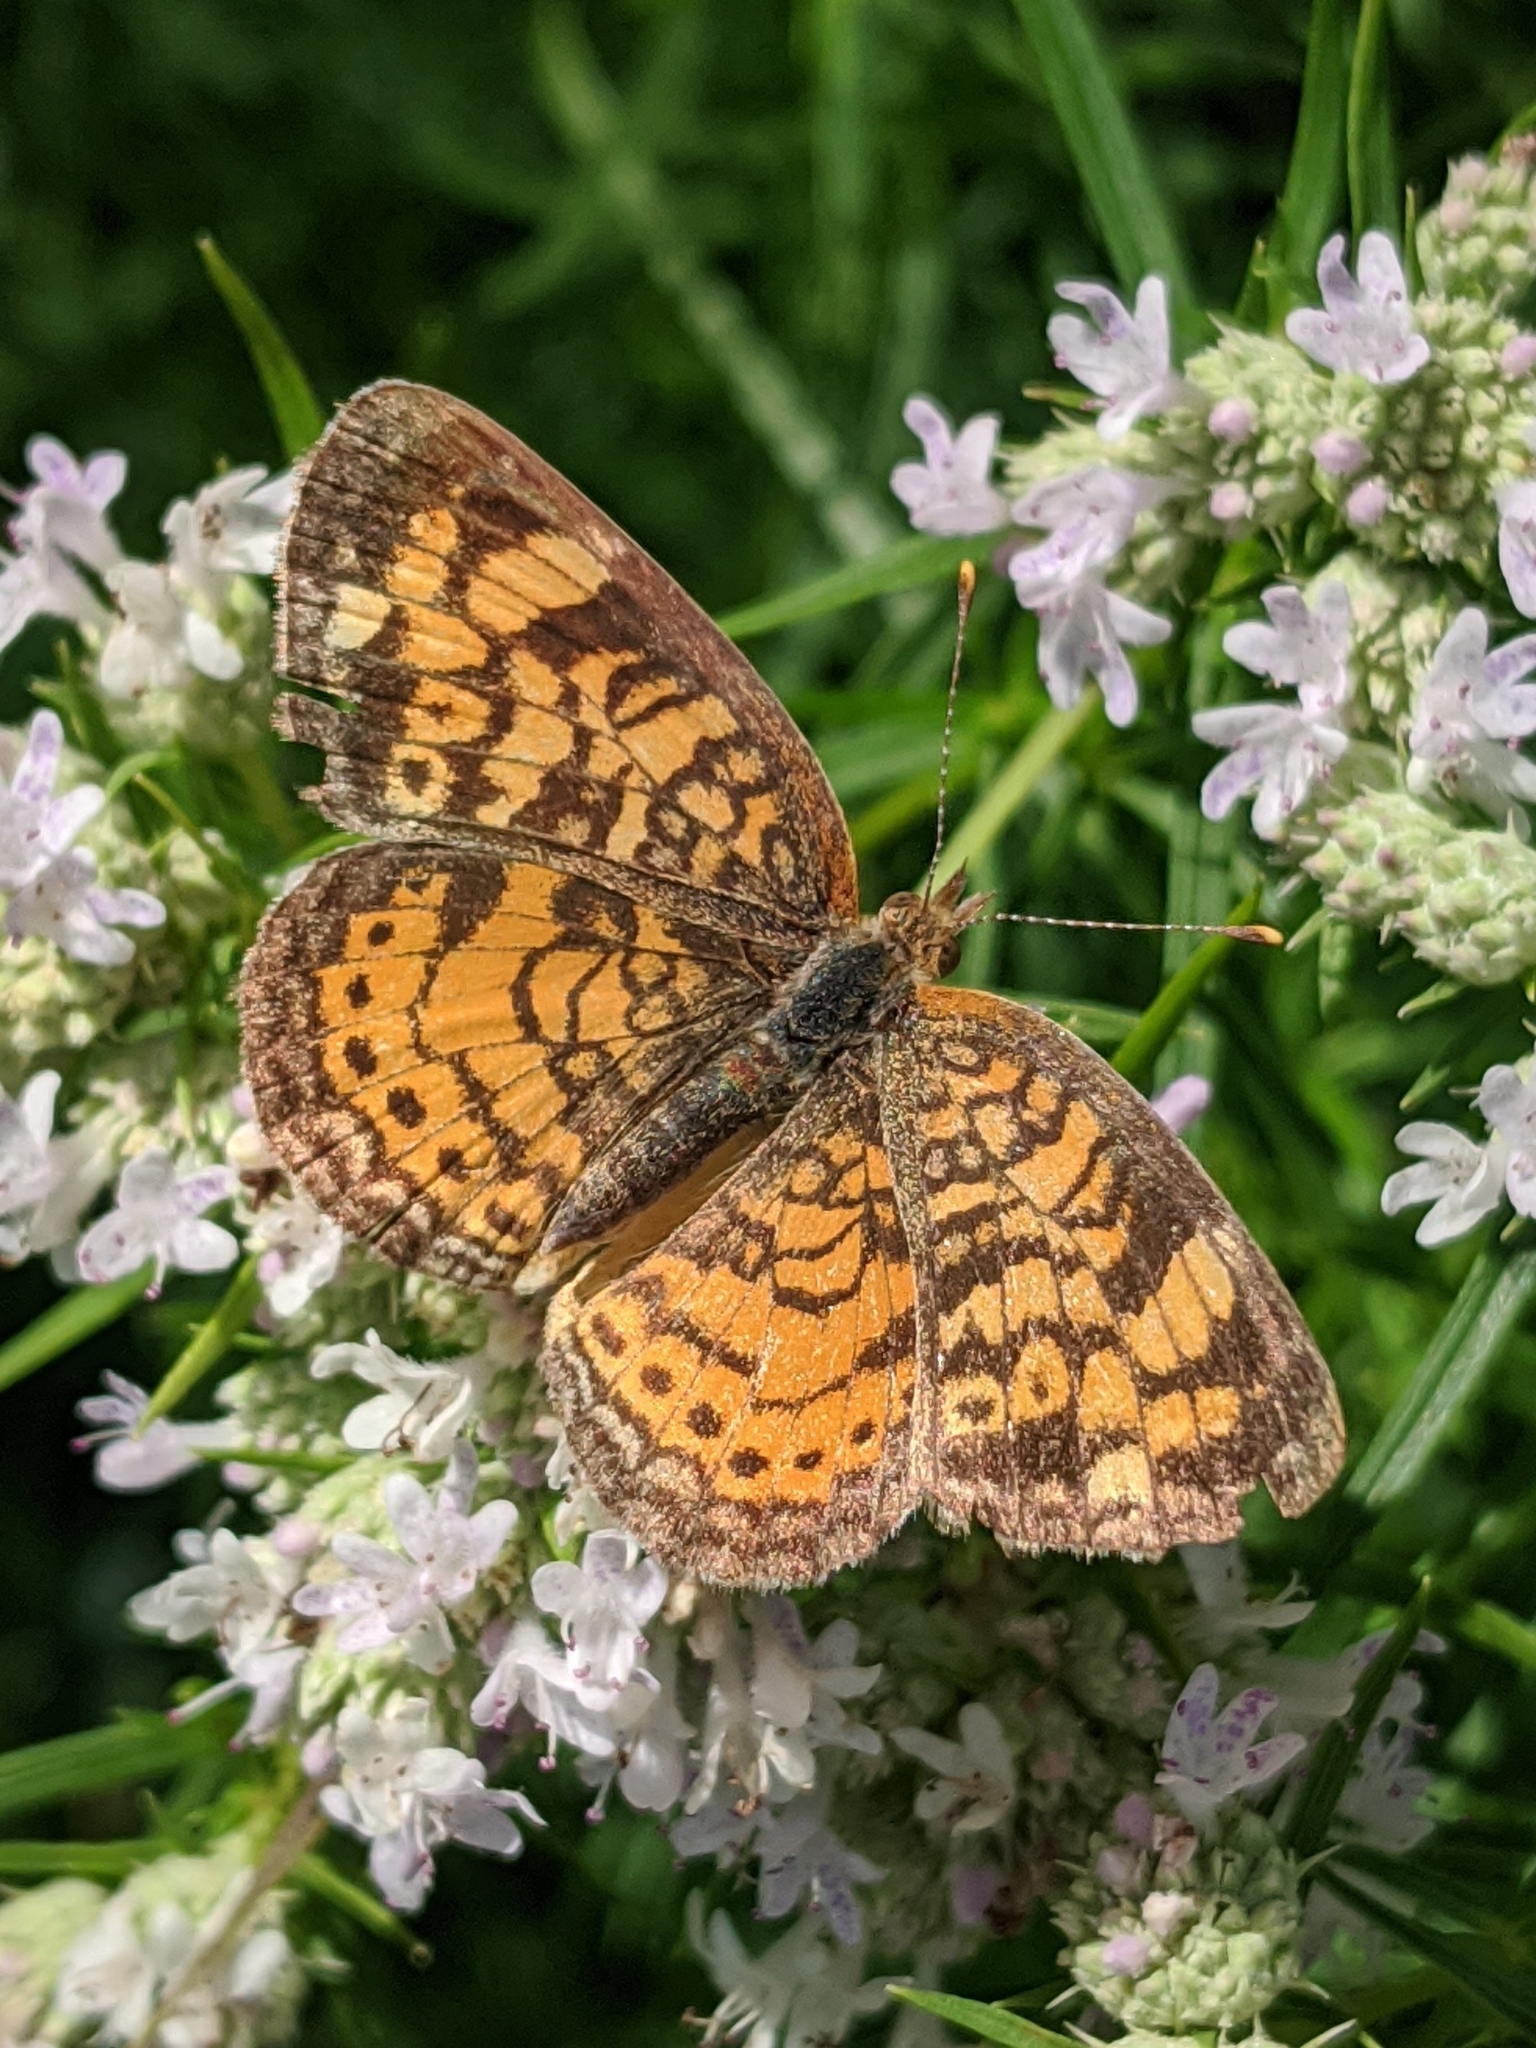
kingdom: Animalia
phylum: Arthropoda
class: Insecta
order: Lepidoptera
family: Nymphalidae
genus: Phyciodes
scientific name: Phyciodes tharos
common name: Pearl crescent
